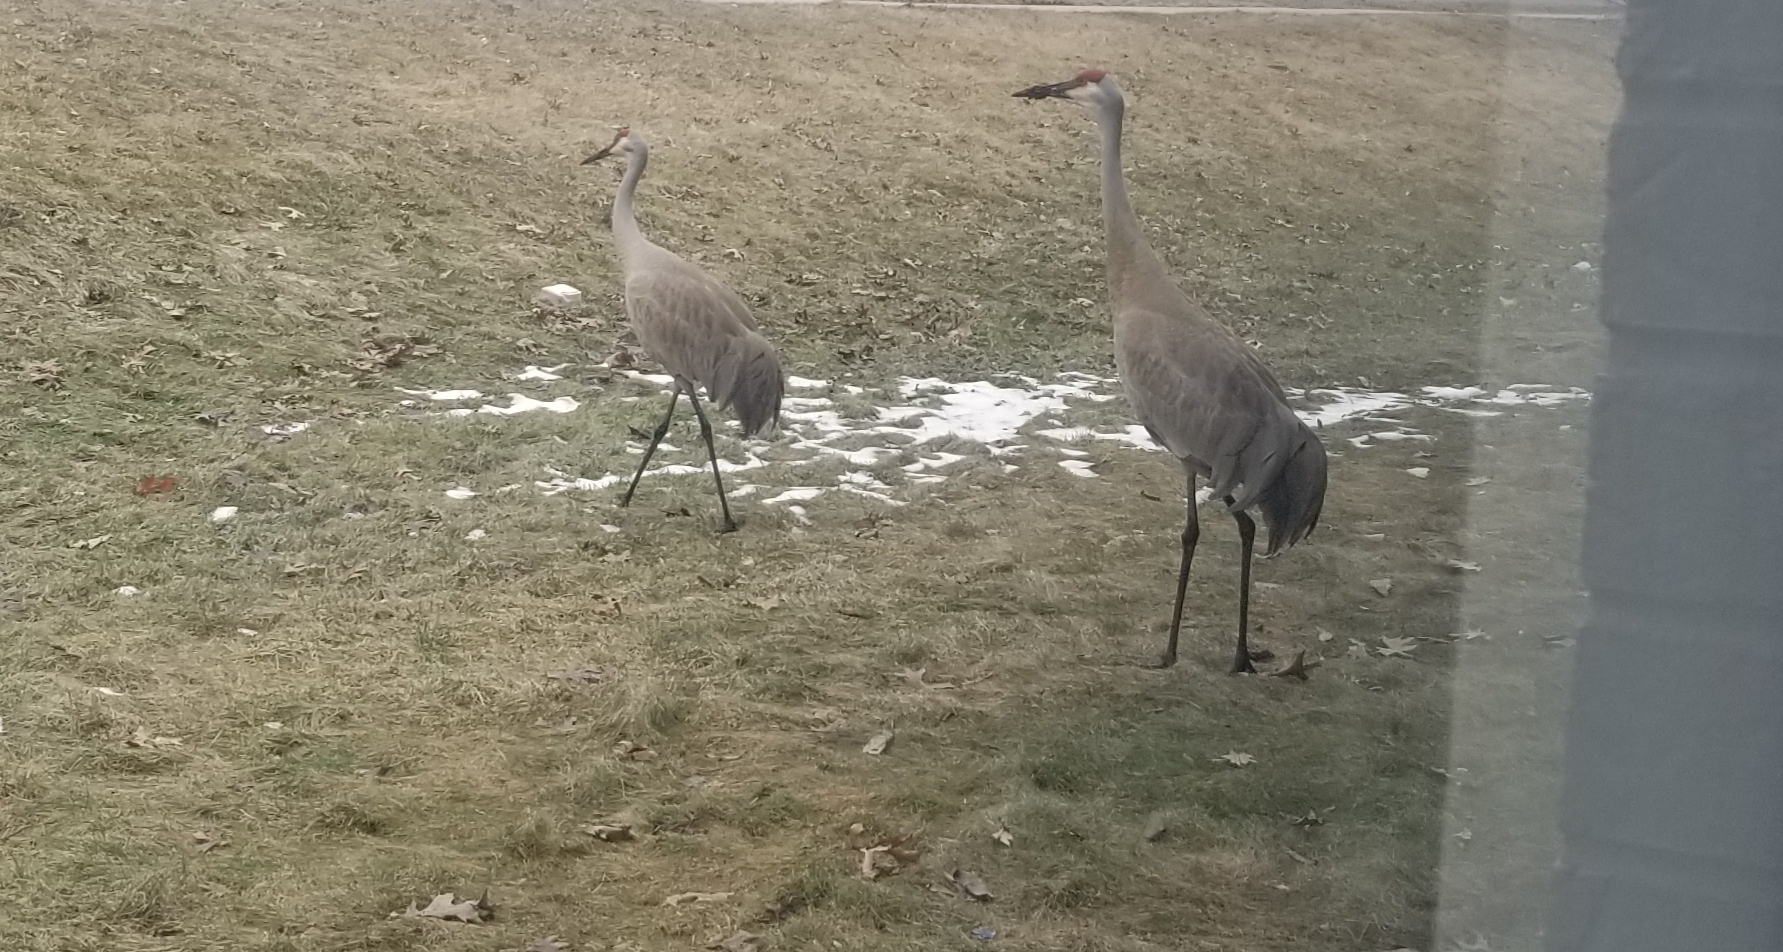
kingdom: Animalia
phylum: Chordata
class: Aves
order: Gruiformes
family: Gruidae
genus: Grus
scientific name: Grus canadensis
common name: Sandhill crane
